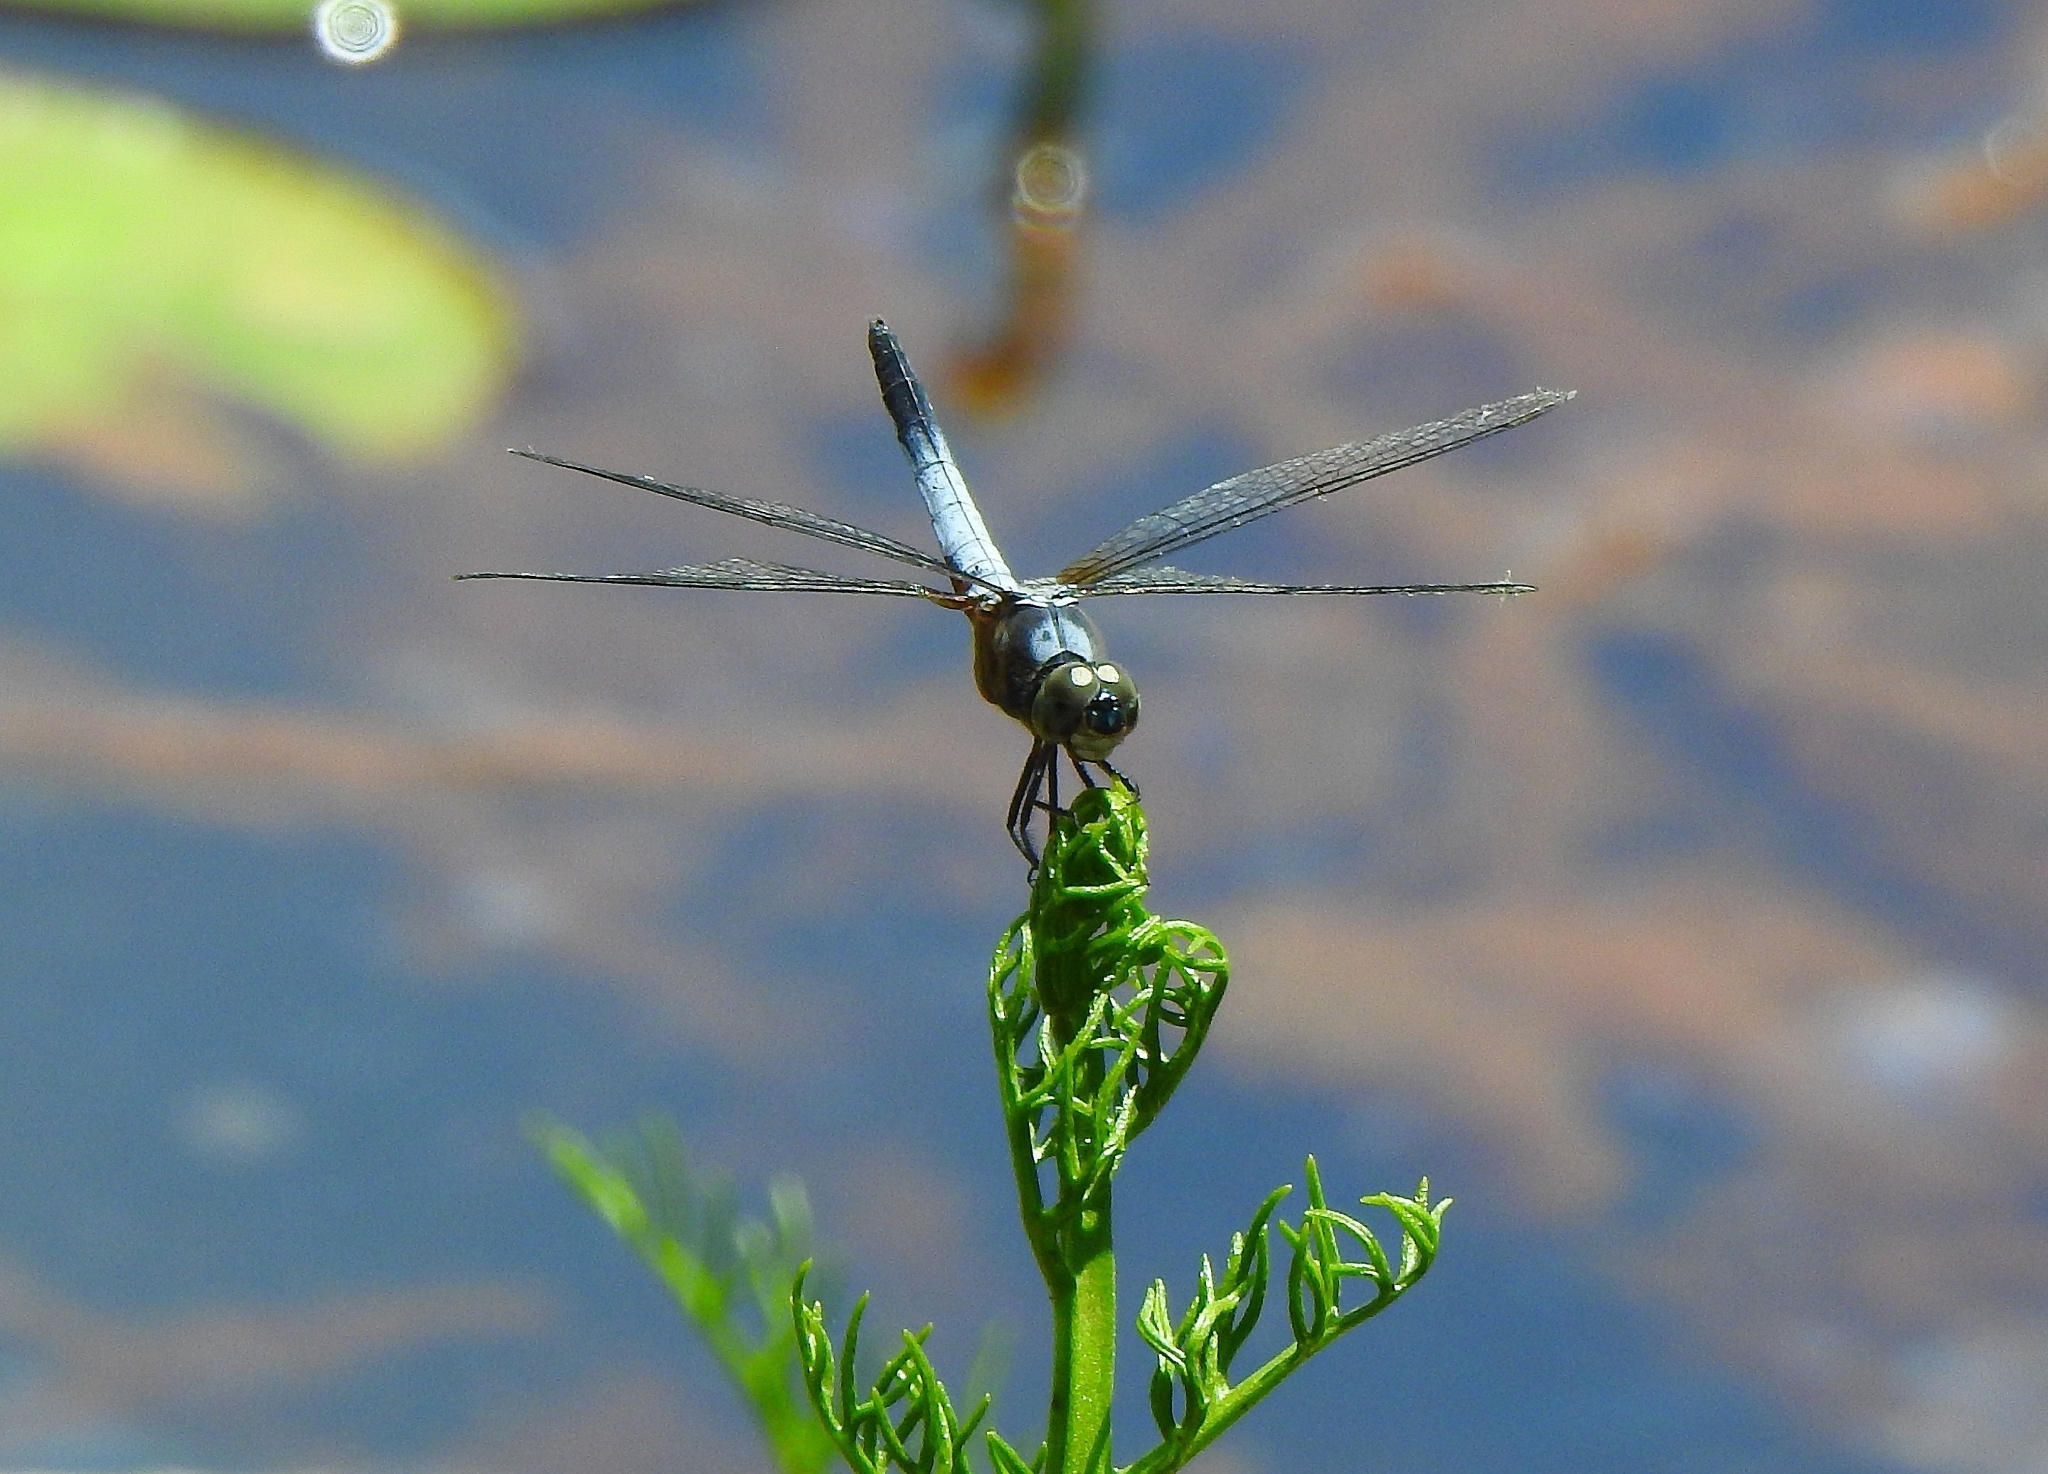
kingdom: Animalia
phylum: Arthropoda
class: Insecta
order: Odonata
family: Libellulidae
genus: Brachydiplax
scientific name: Brachydiplax chalybea
